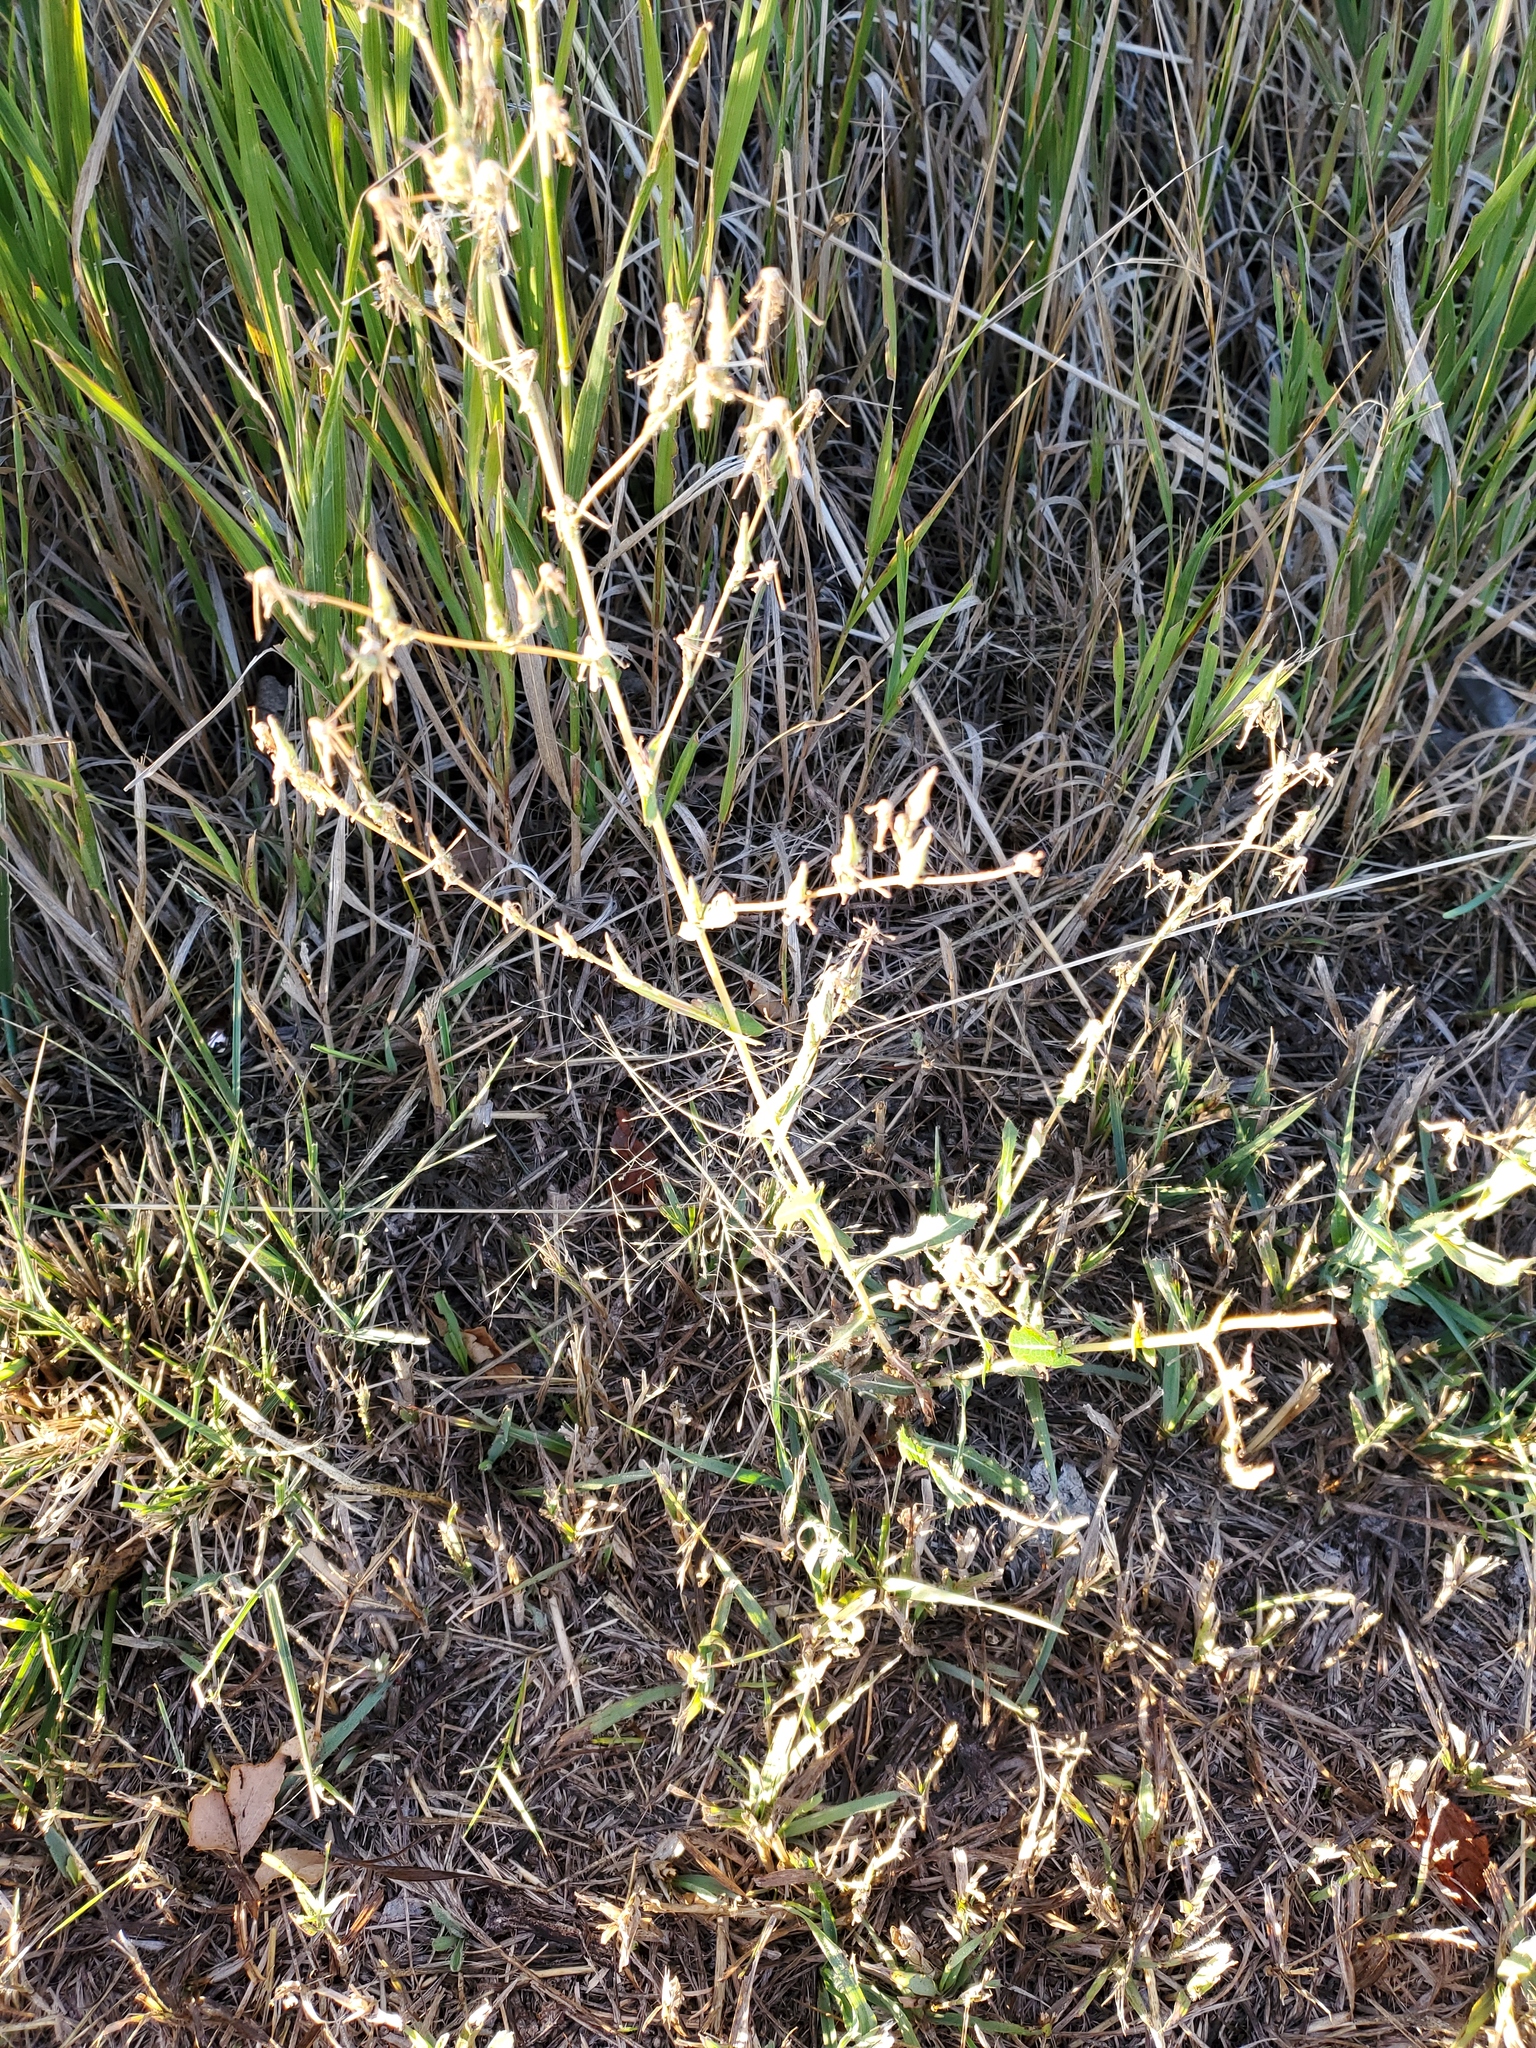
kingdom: Plantae
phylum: Tracheophyta
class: Magnoliopsida
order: Asterales
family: Asteraceae
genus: Lactuca
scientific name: Lactuca serriola
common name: Prickly lettuce
